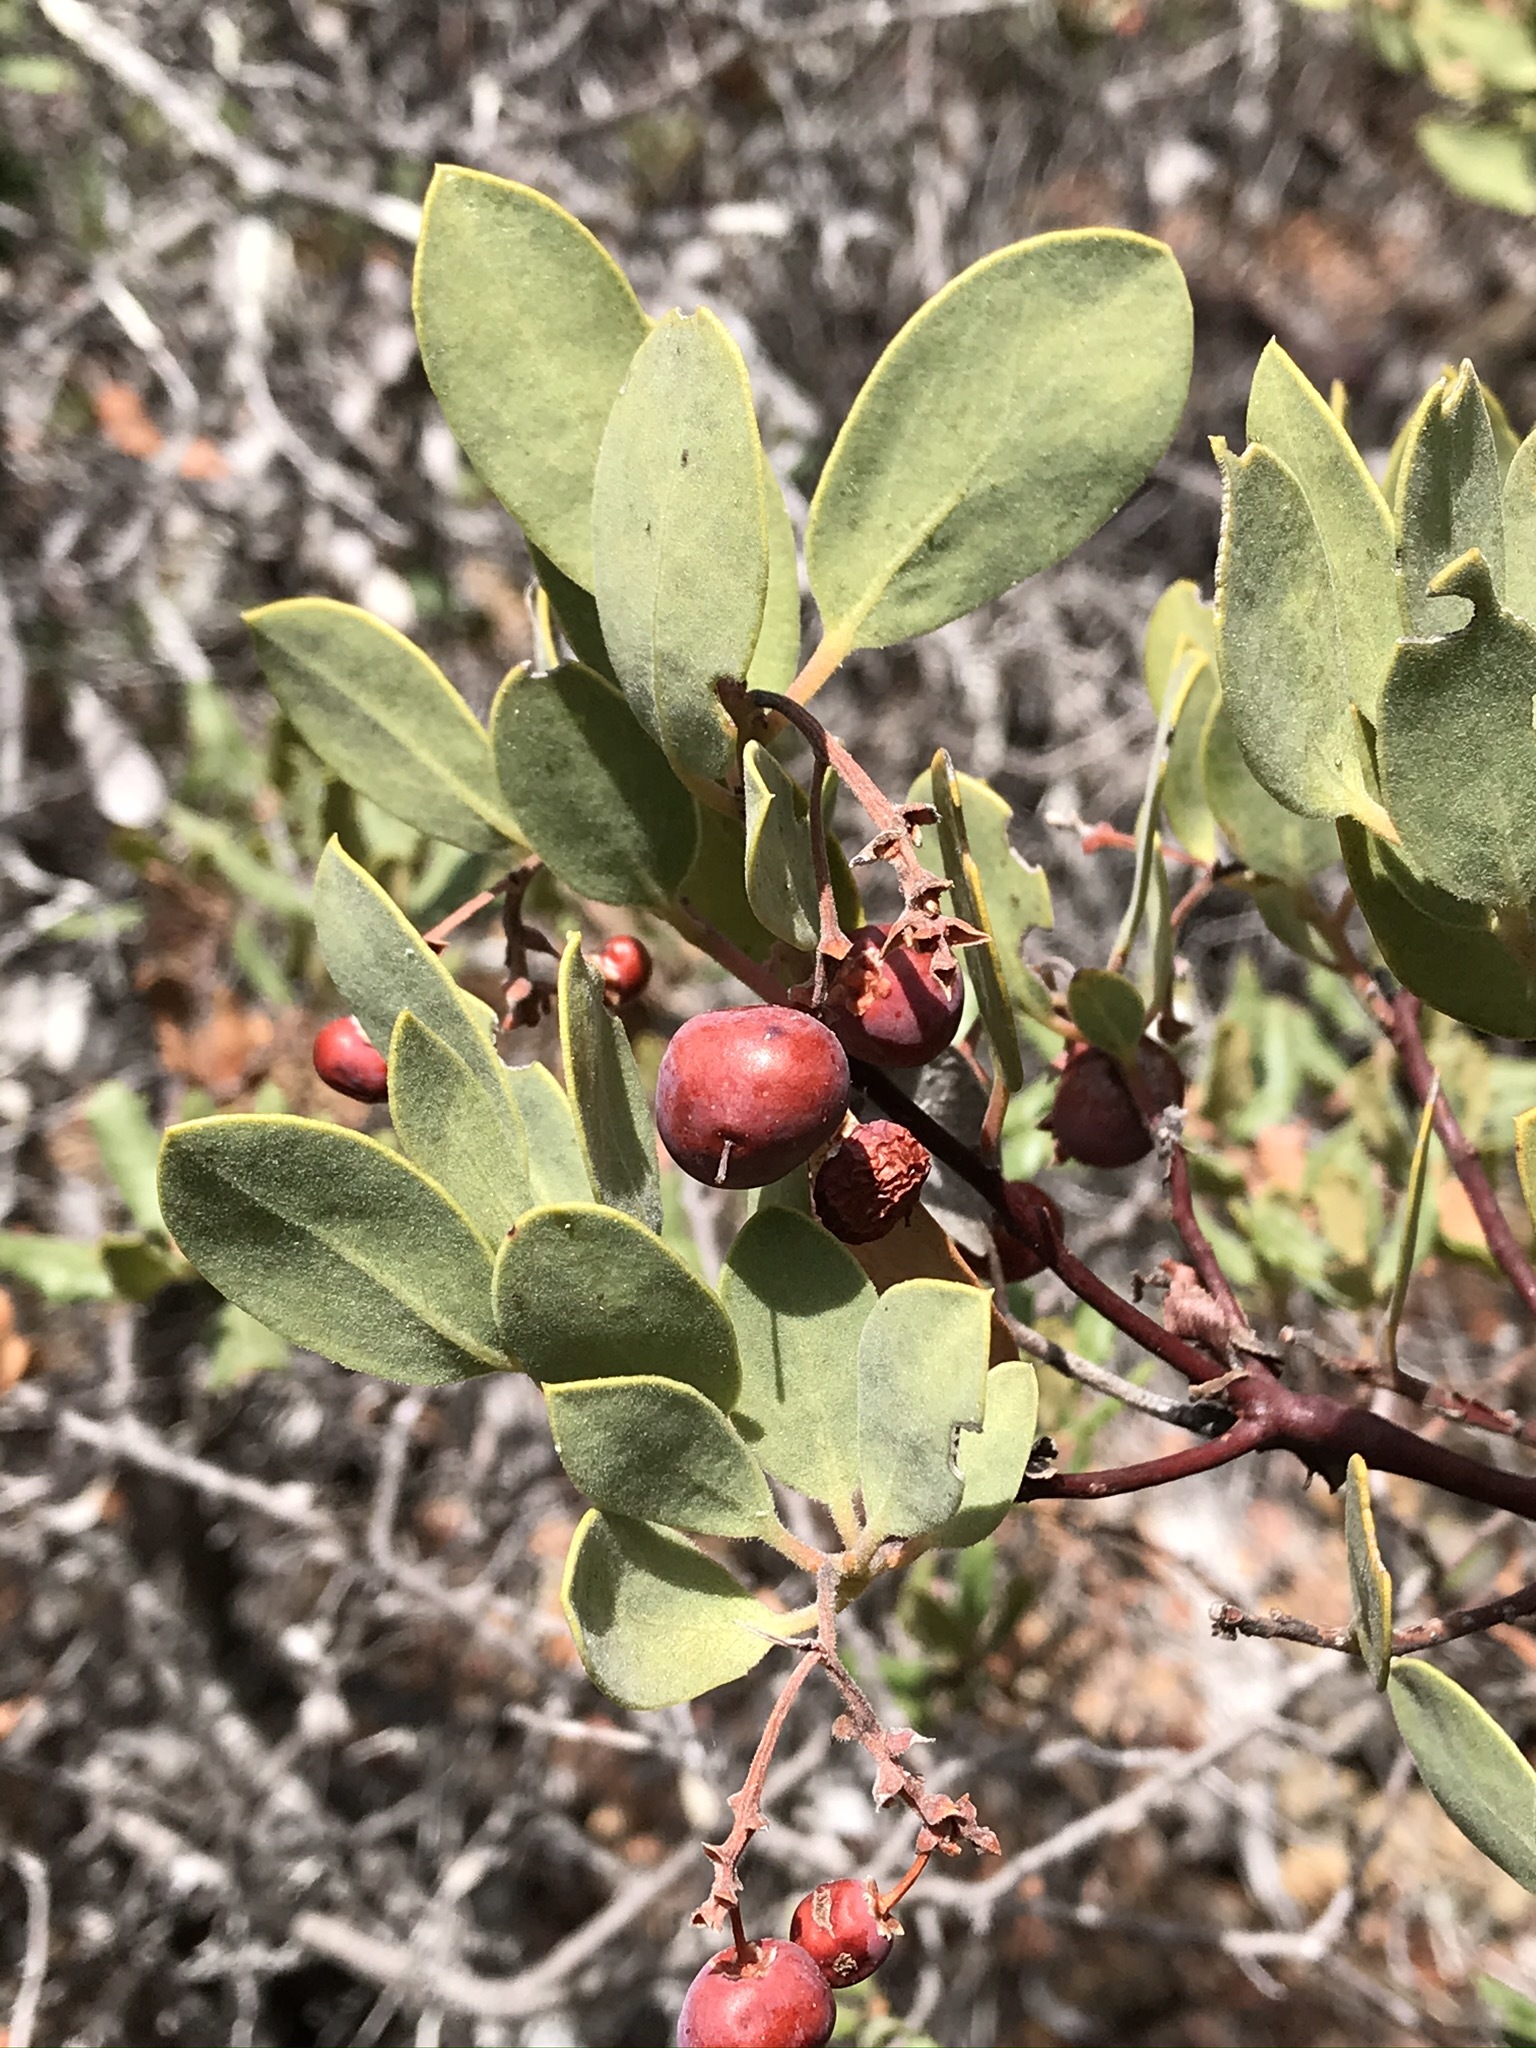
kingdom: Plantae
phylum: Tracheophyta
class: Magnoliopsida
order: Ericales
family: Ericaceae
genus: Arctostaphylos
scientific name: Arctostaphylos bakeri
